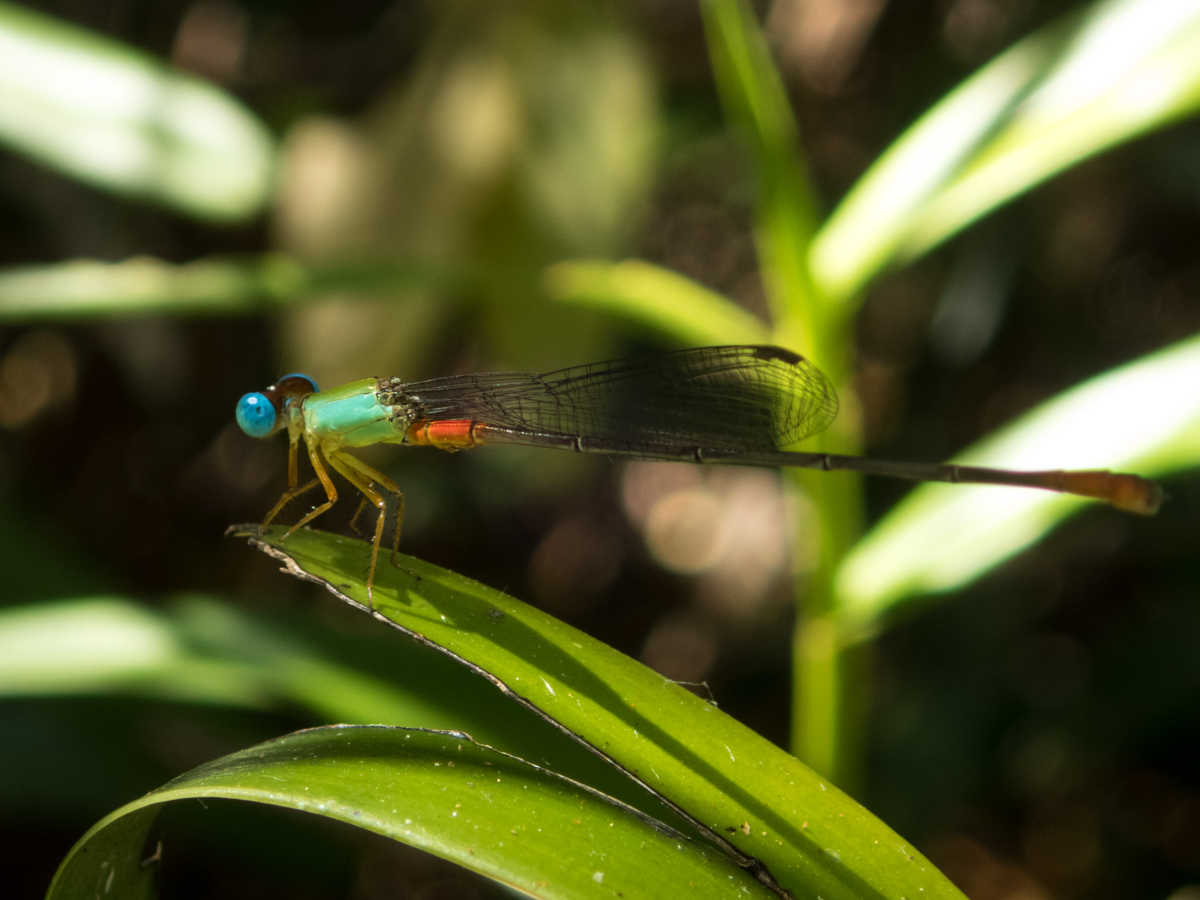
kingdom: Animalia
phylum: Arthropoda
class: Insecta
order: Odonata
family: Coenagrionidae
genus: Ceriagrion
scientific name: Ceriagrion cerinorubellum
